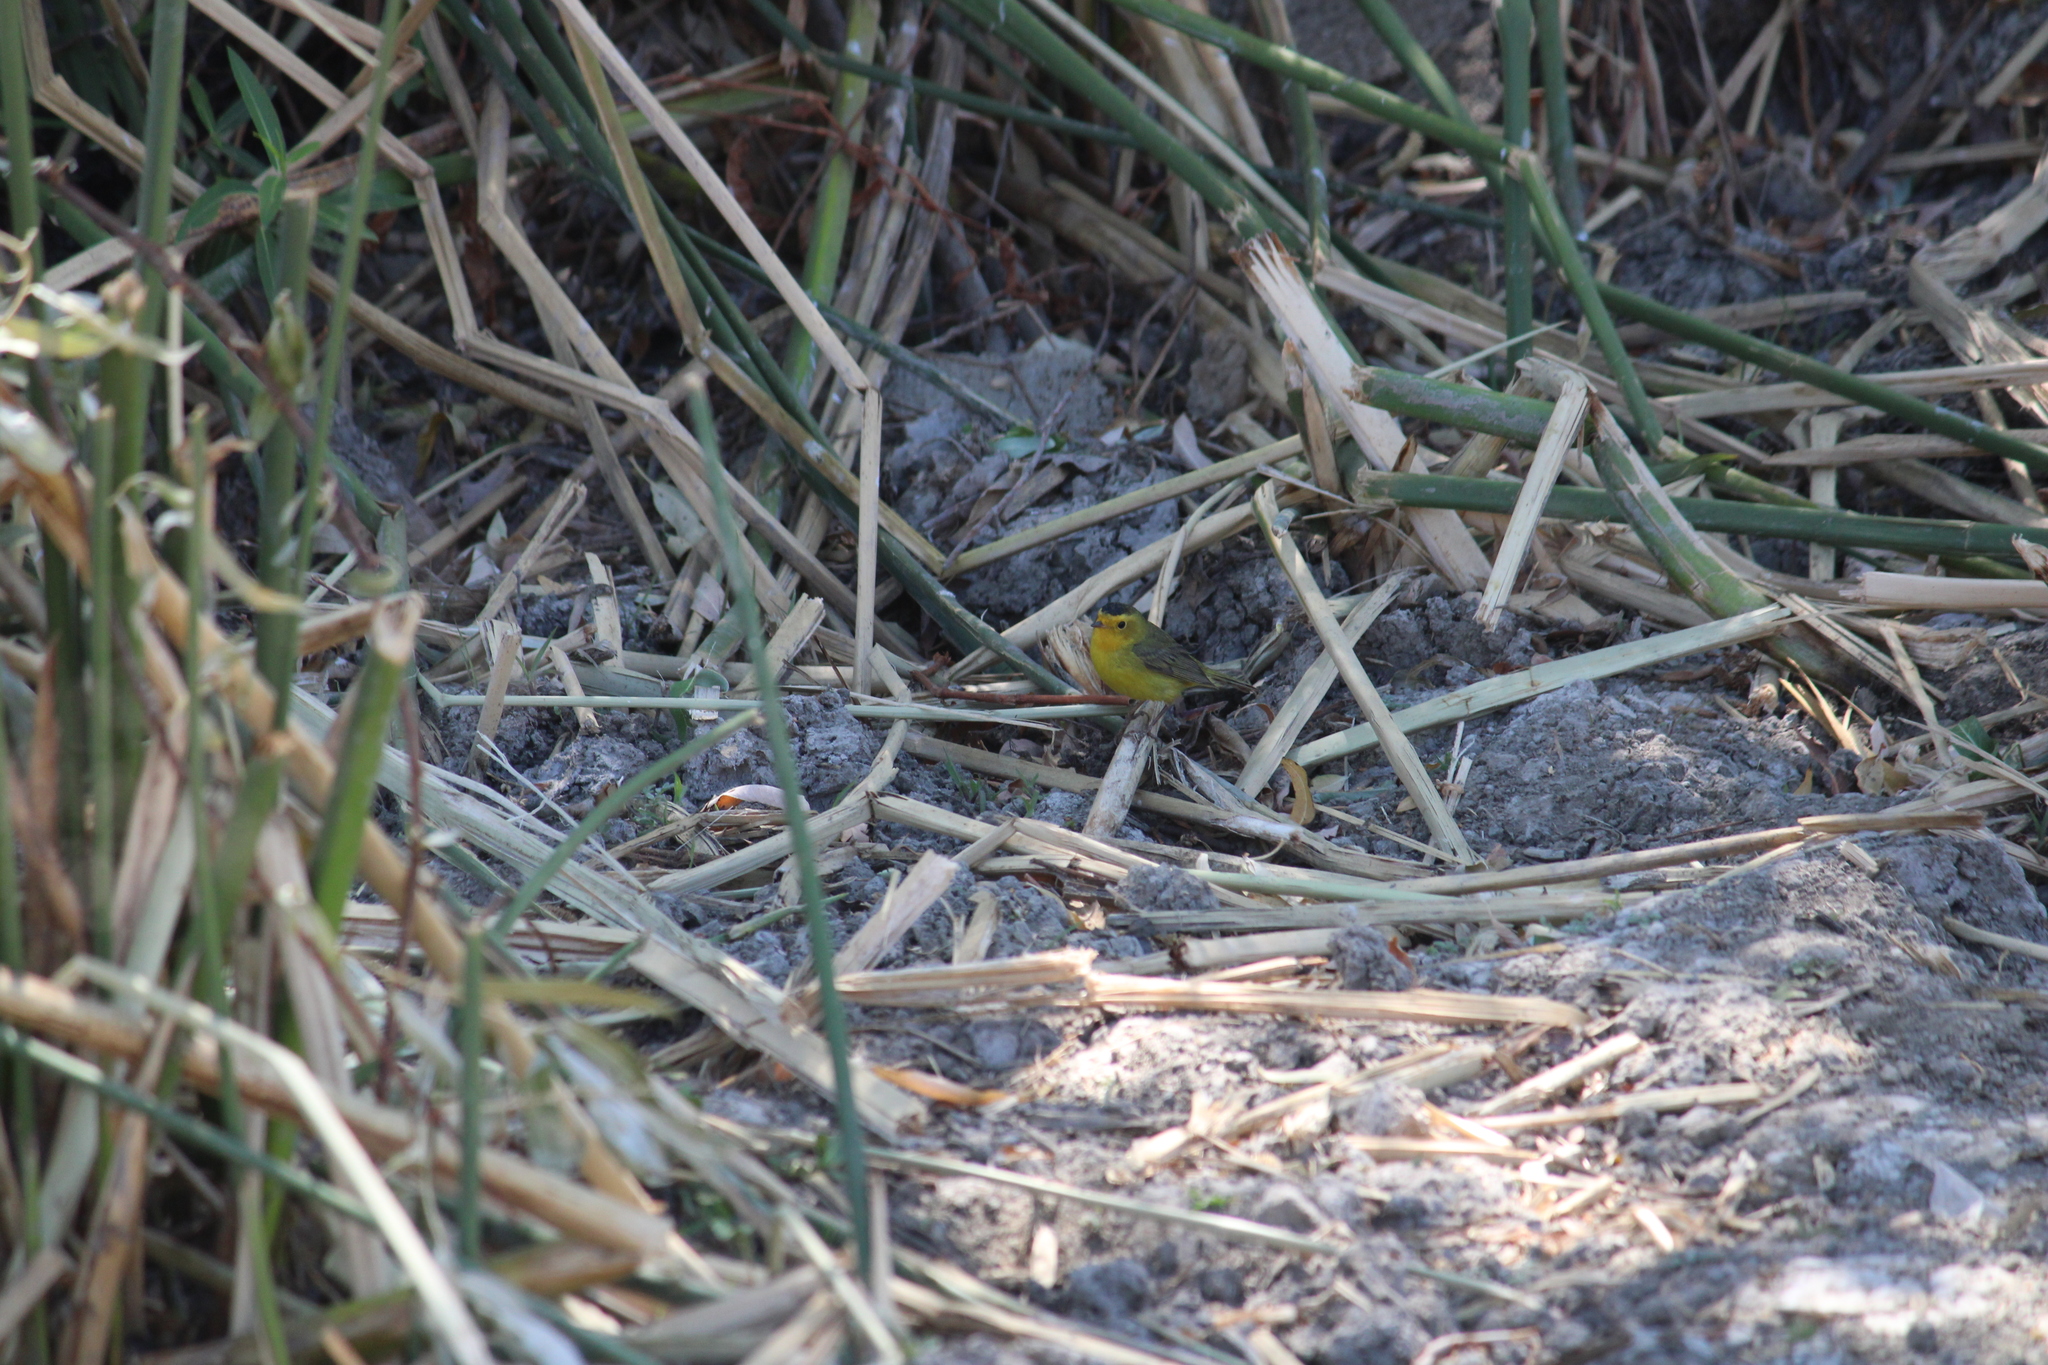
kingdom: Animalia
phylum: Chordata
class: Aves
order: Passeriformes
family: Parulidae
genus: Cardellina
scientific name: Cardellina pusilla
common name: Wilson's warbler
